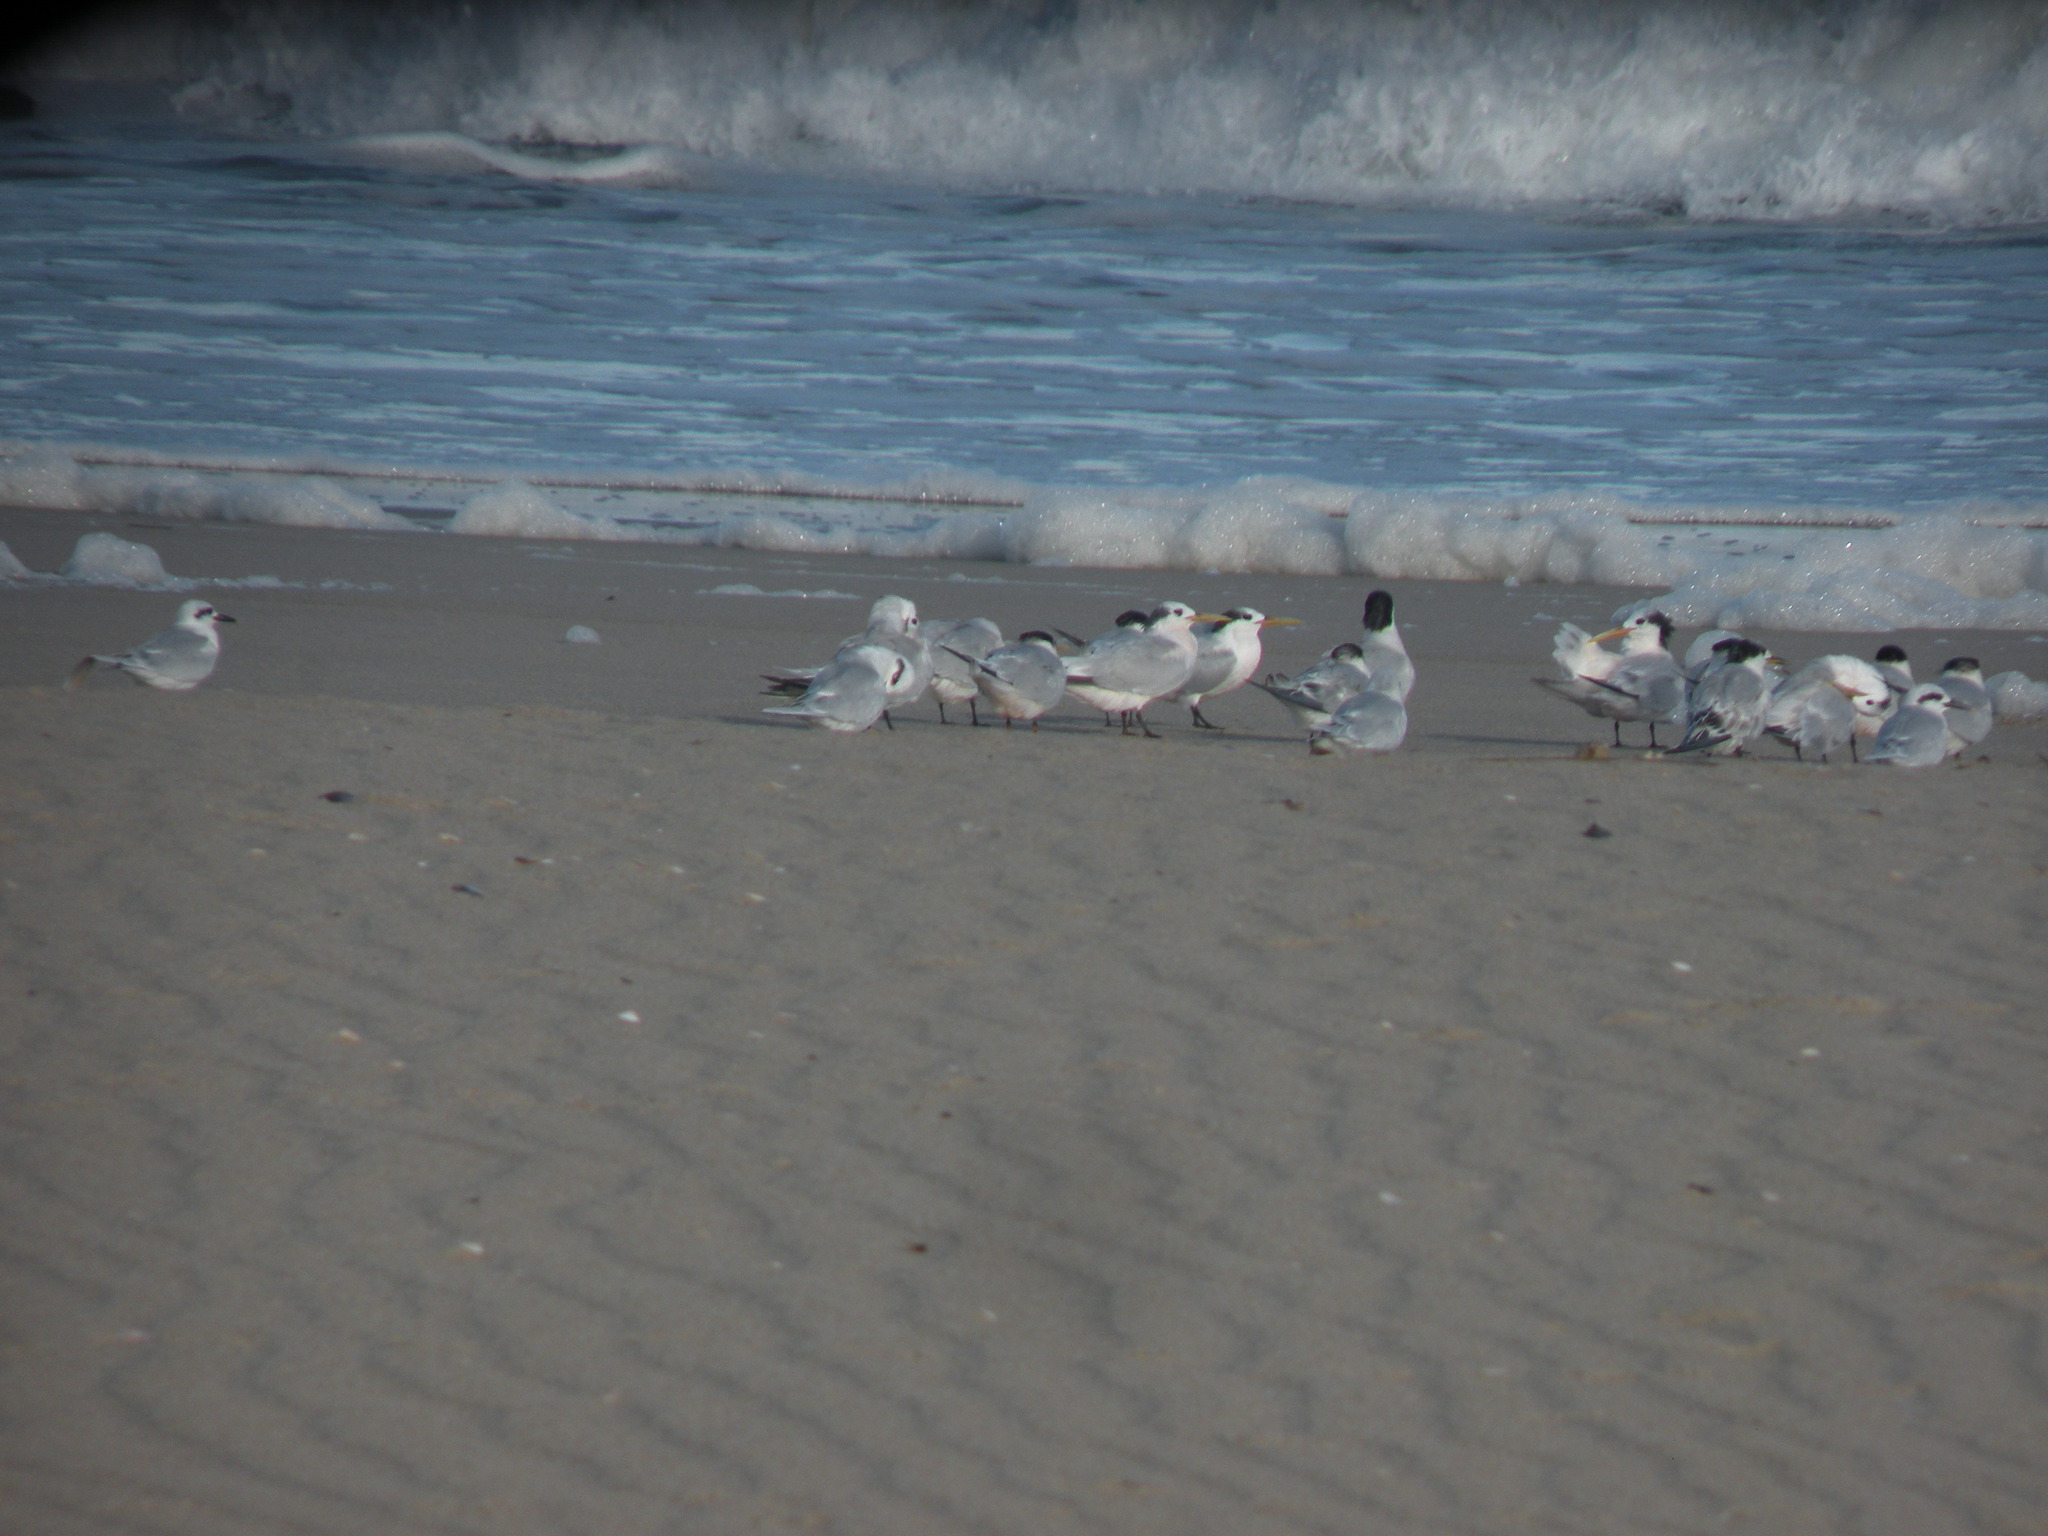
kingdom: Animalia
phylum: Chordata
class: Aves
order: Charadriiformes
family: Laridae
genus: Thalasseus
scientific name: Thalasseus sandvicensis
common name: Sandwich tern
